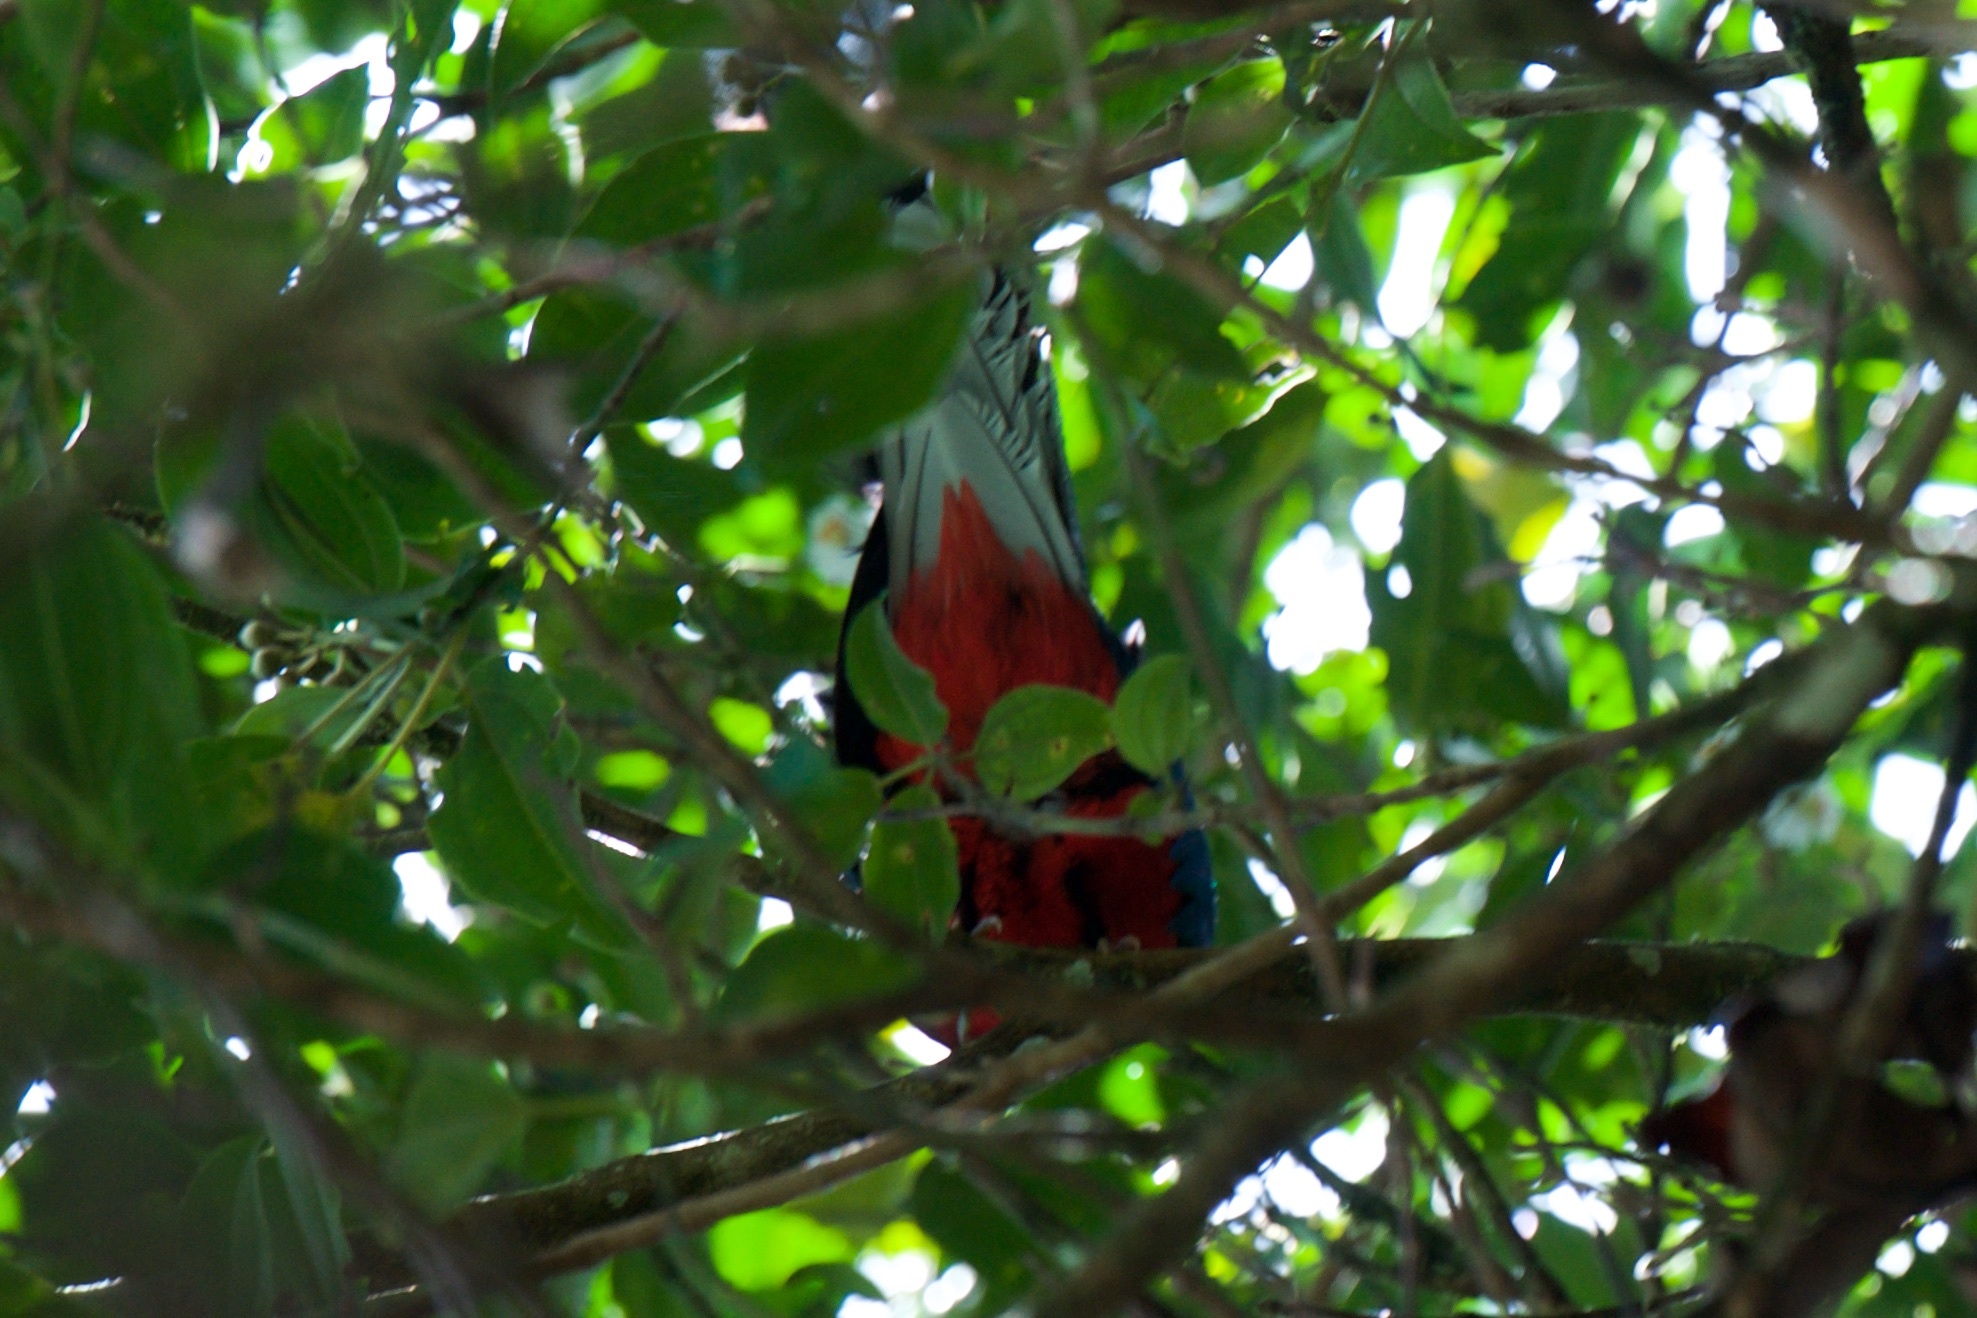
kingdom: Animalia
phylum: Chordata
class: Aves
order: Trogoniformes
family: Trogonidae
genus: Pharomachrus
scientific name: Pharomachrus mocinno
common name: Resplendent quetzal
